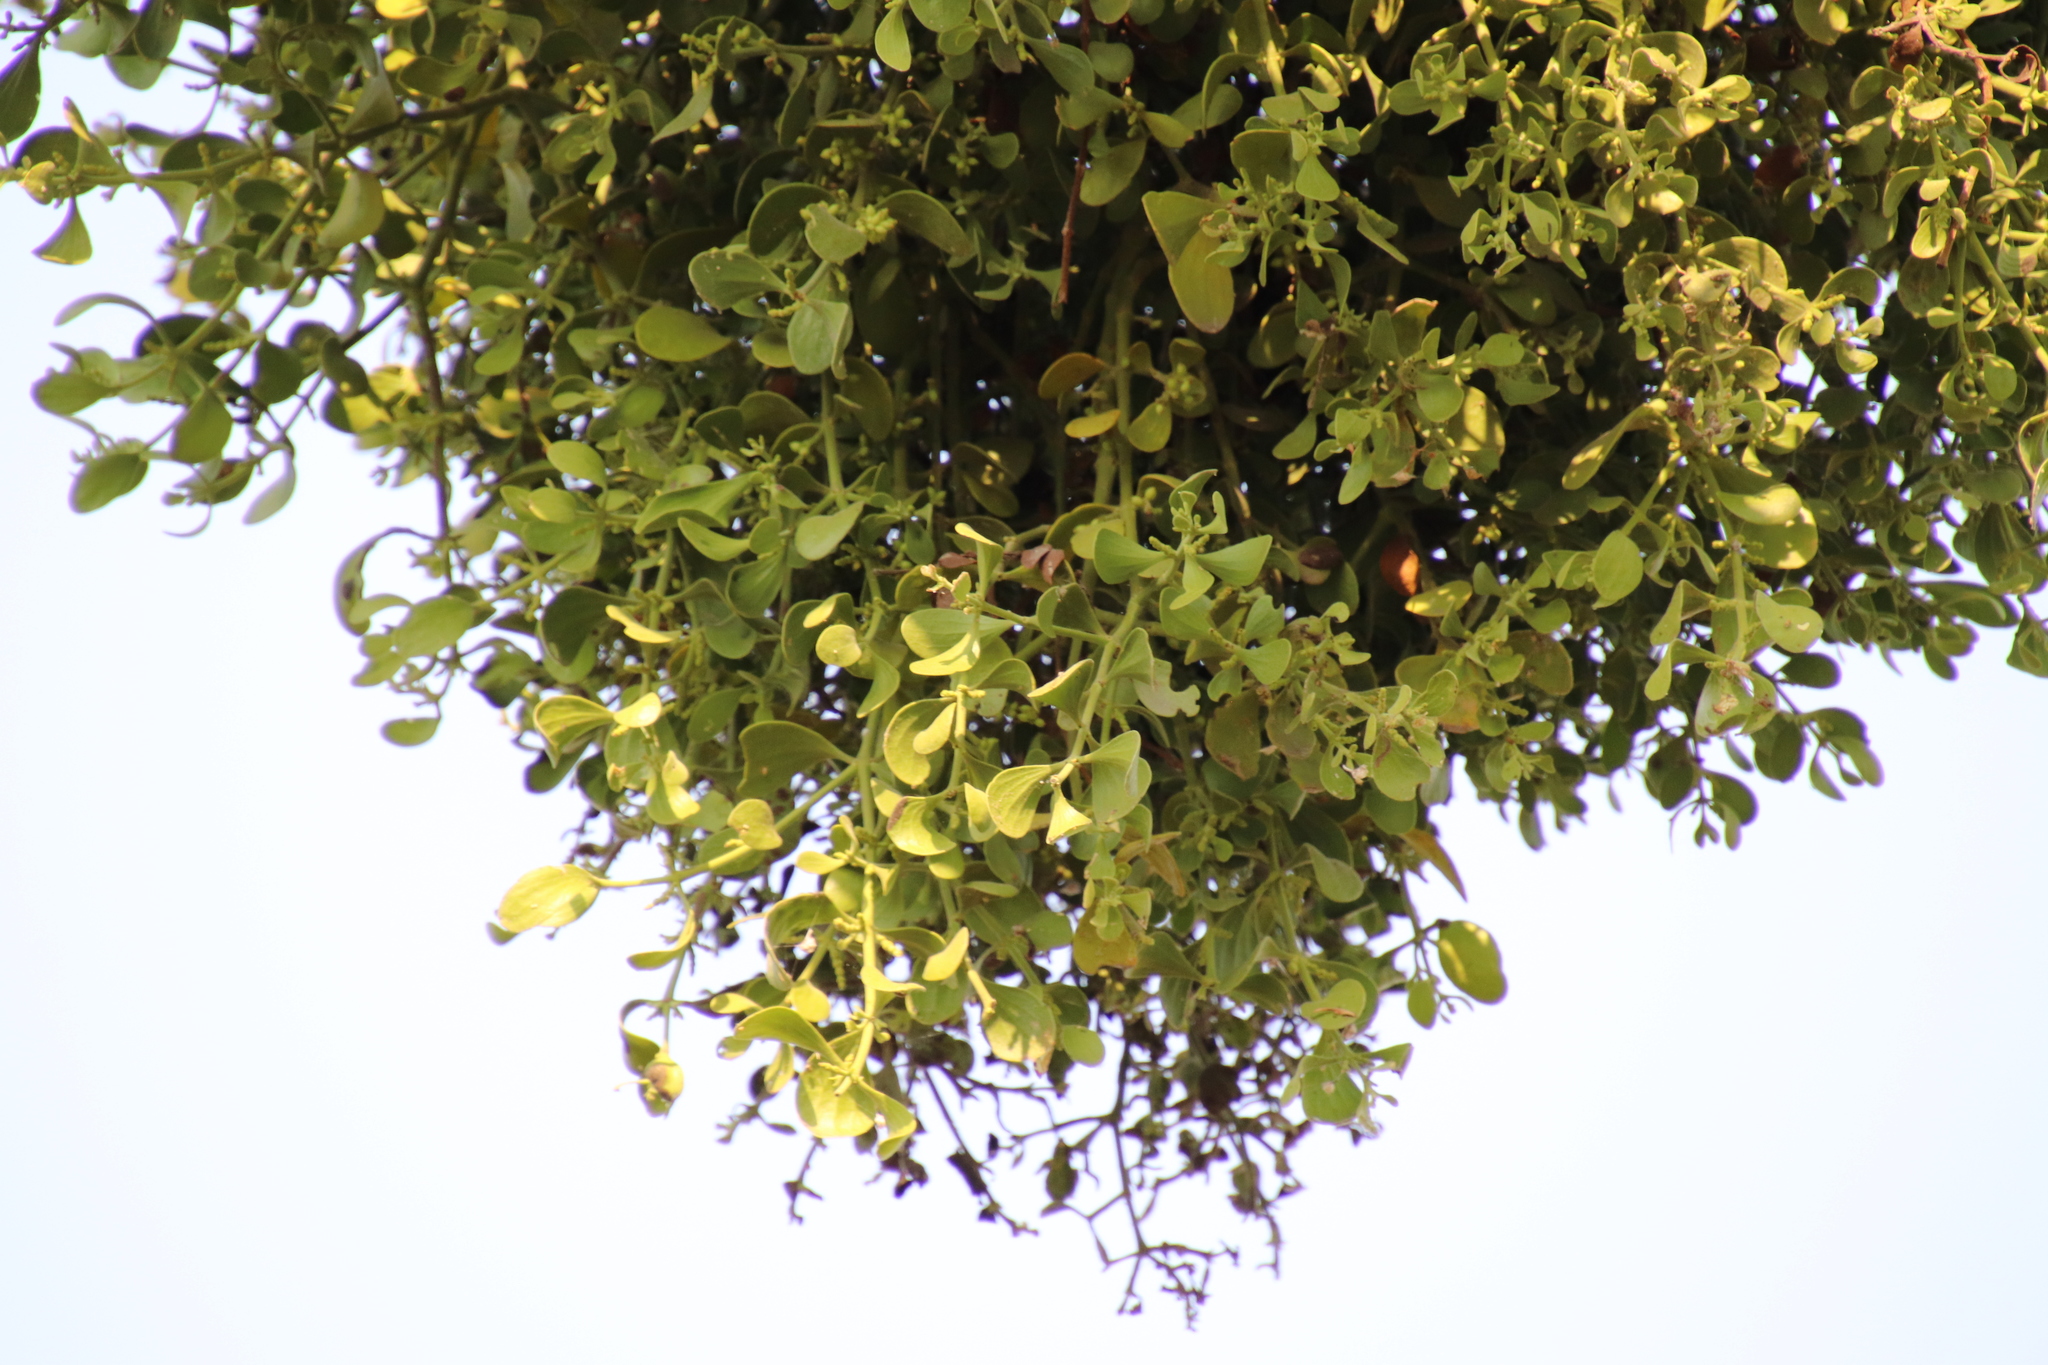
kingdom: Plantae
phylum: Tracheophyta
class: Magnoliopsida
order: Santalales
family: Viscaceae
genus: Phoradendron
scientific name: Phoradendron
